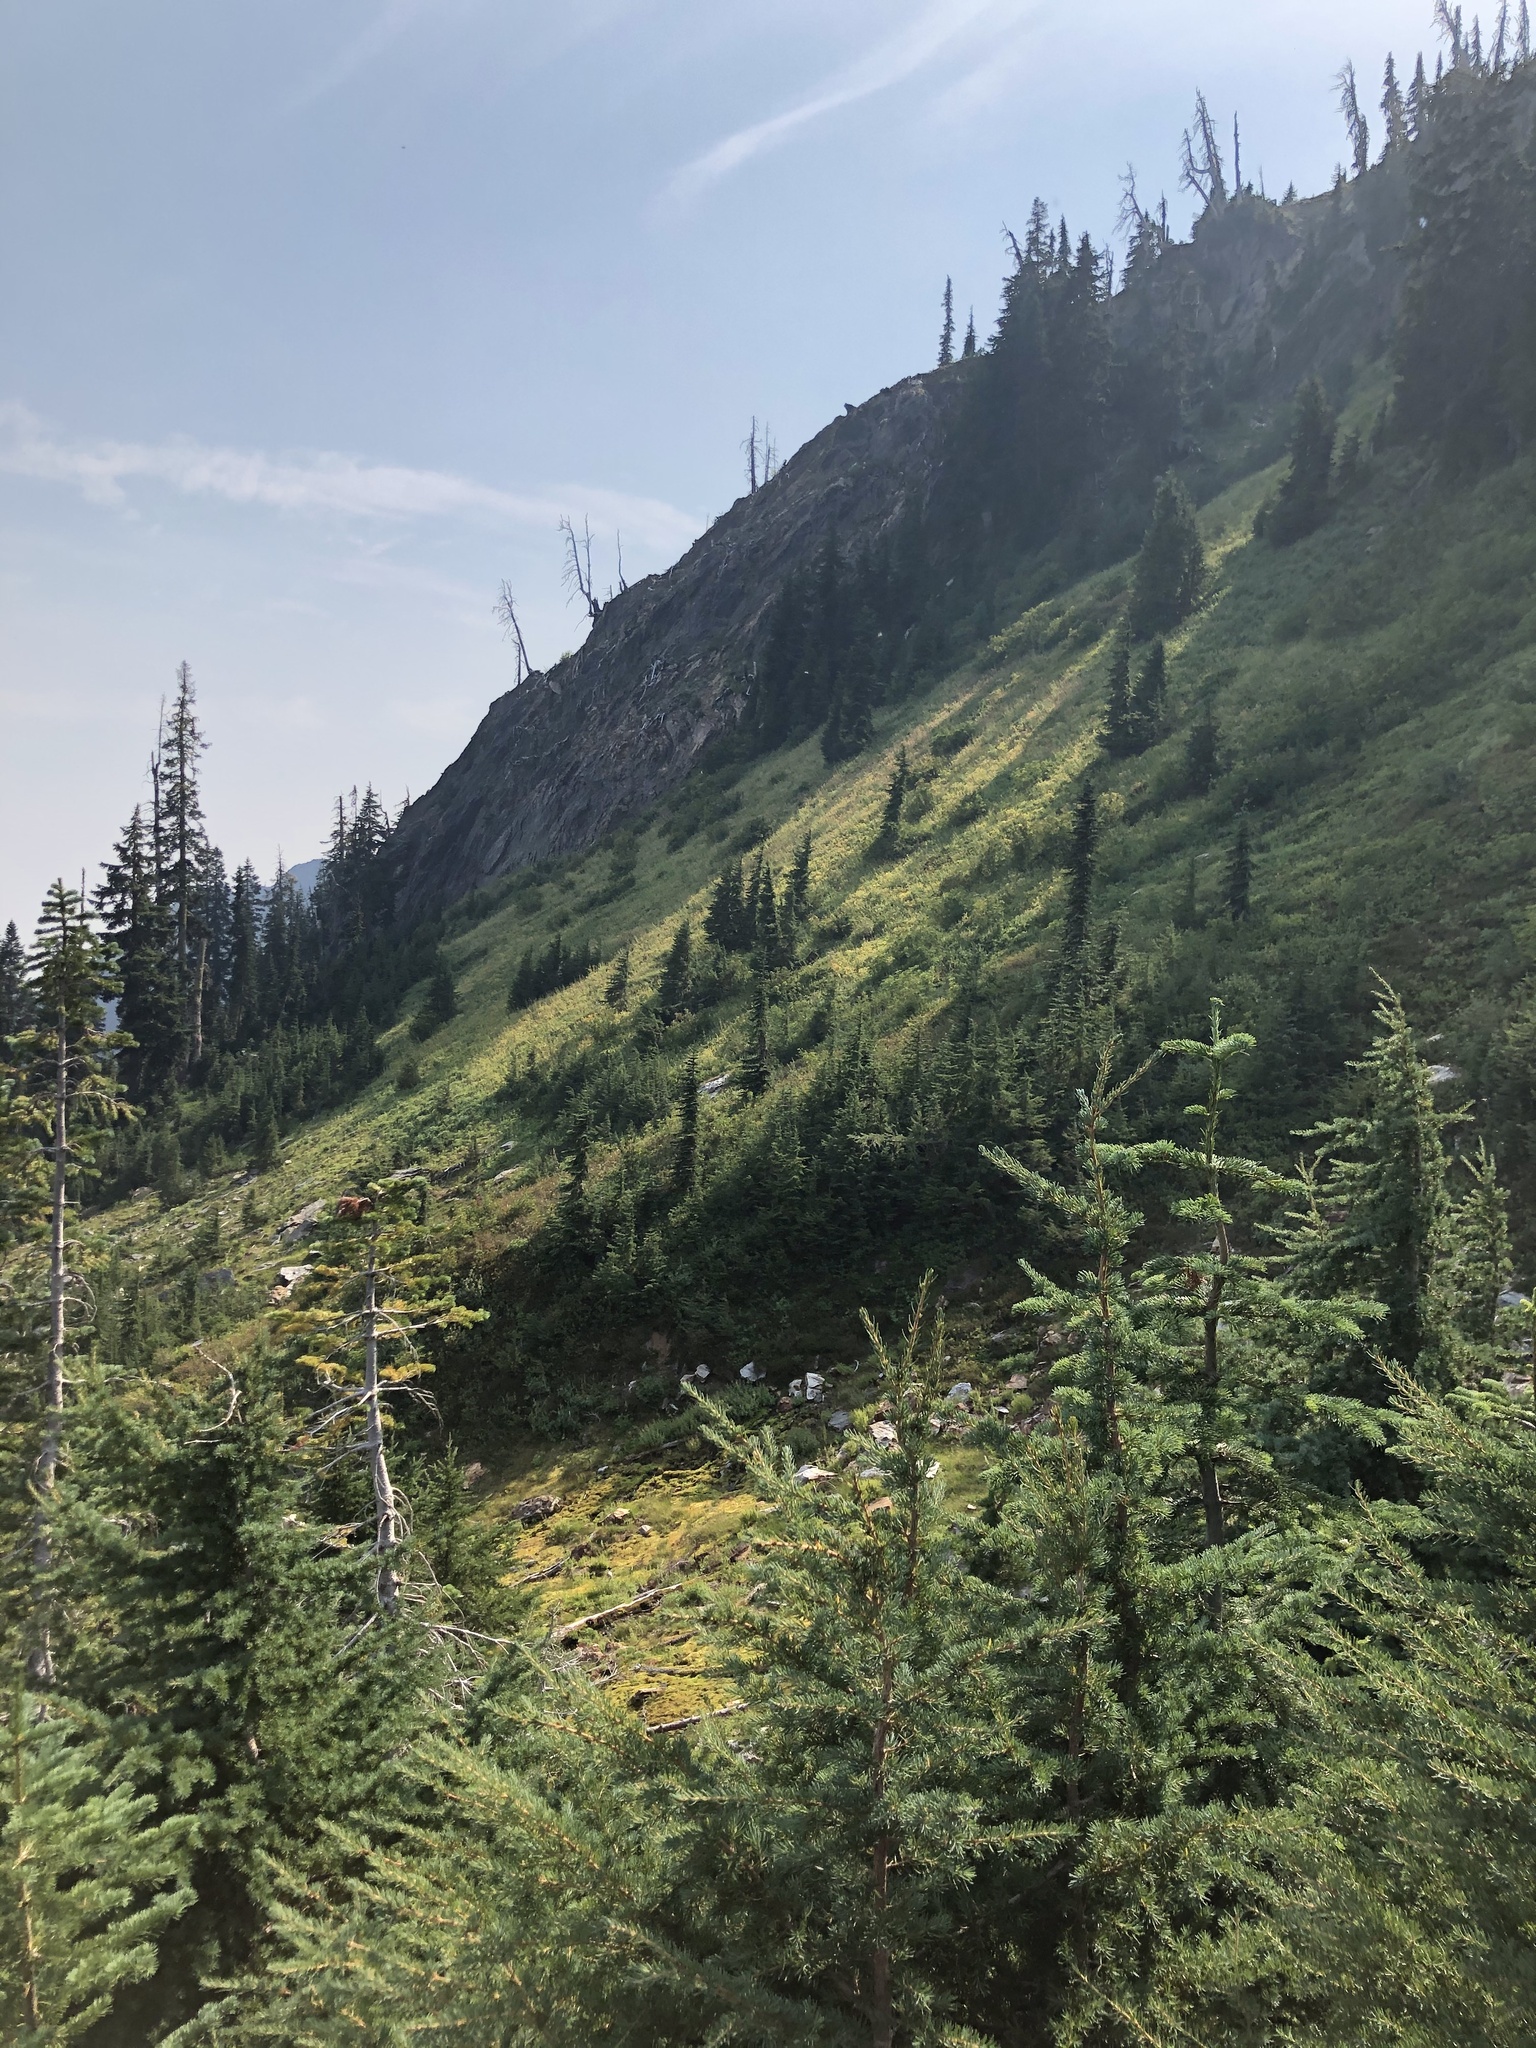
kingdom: Plantae
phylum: Tracheophyta
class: Pinopsida
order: Pinales
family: Pinaceae
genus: Tsuga
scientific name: Tsuga mertensiana
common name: Mountain hemlock
